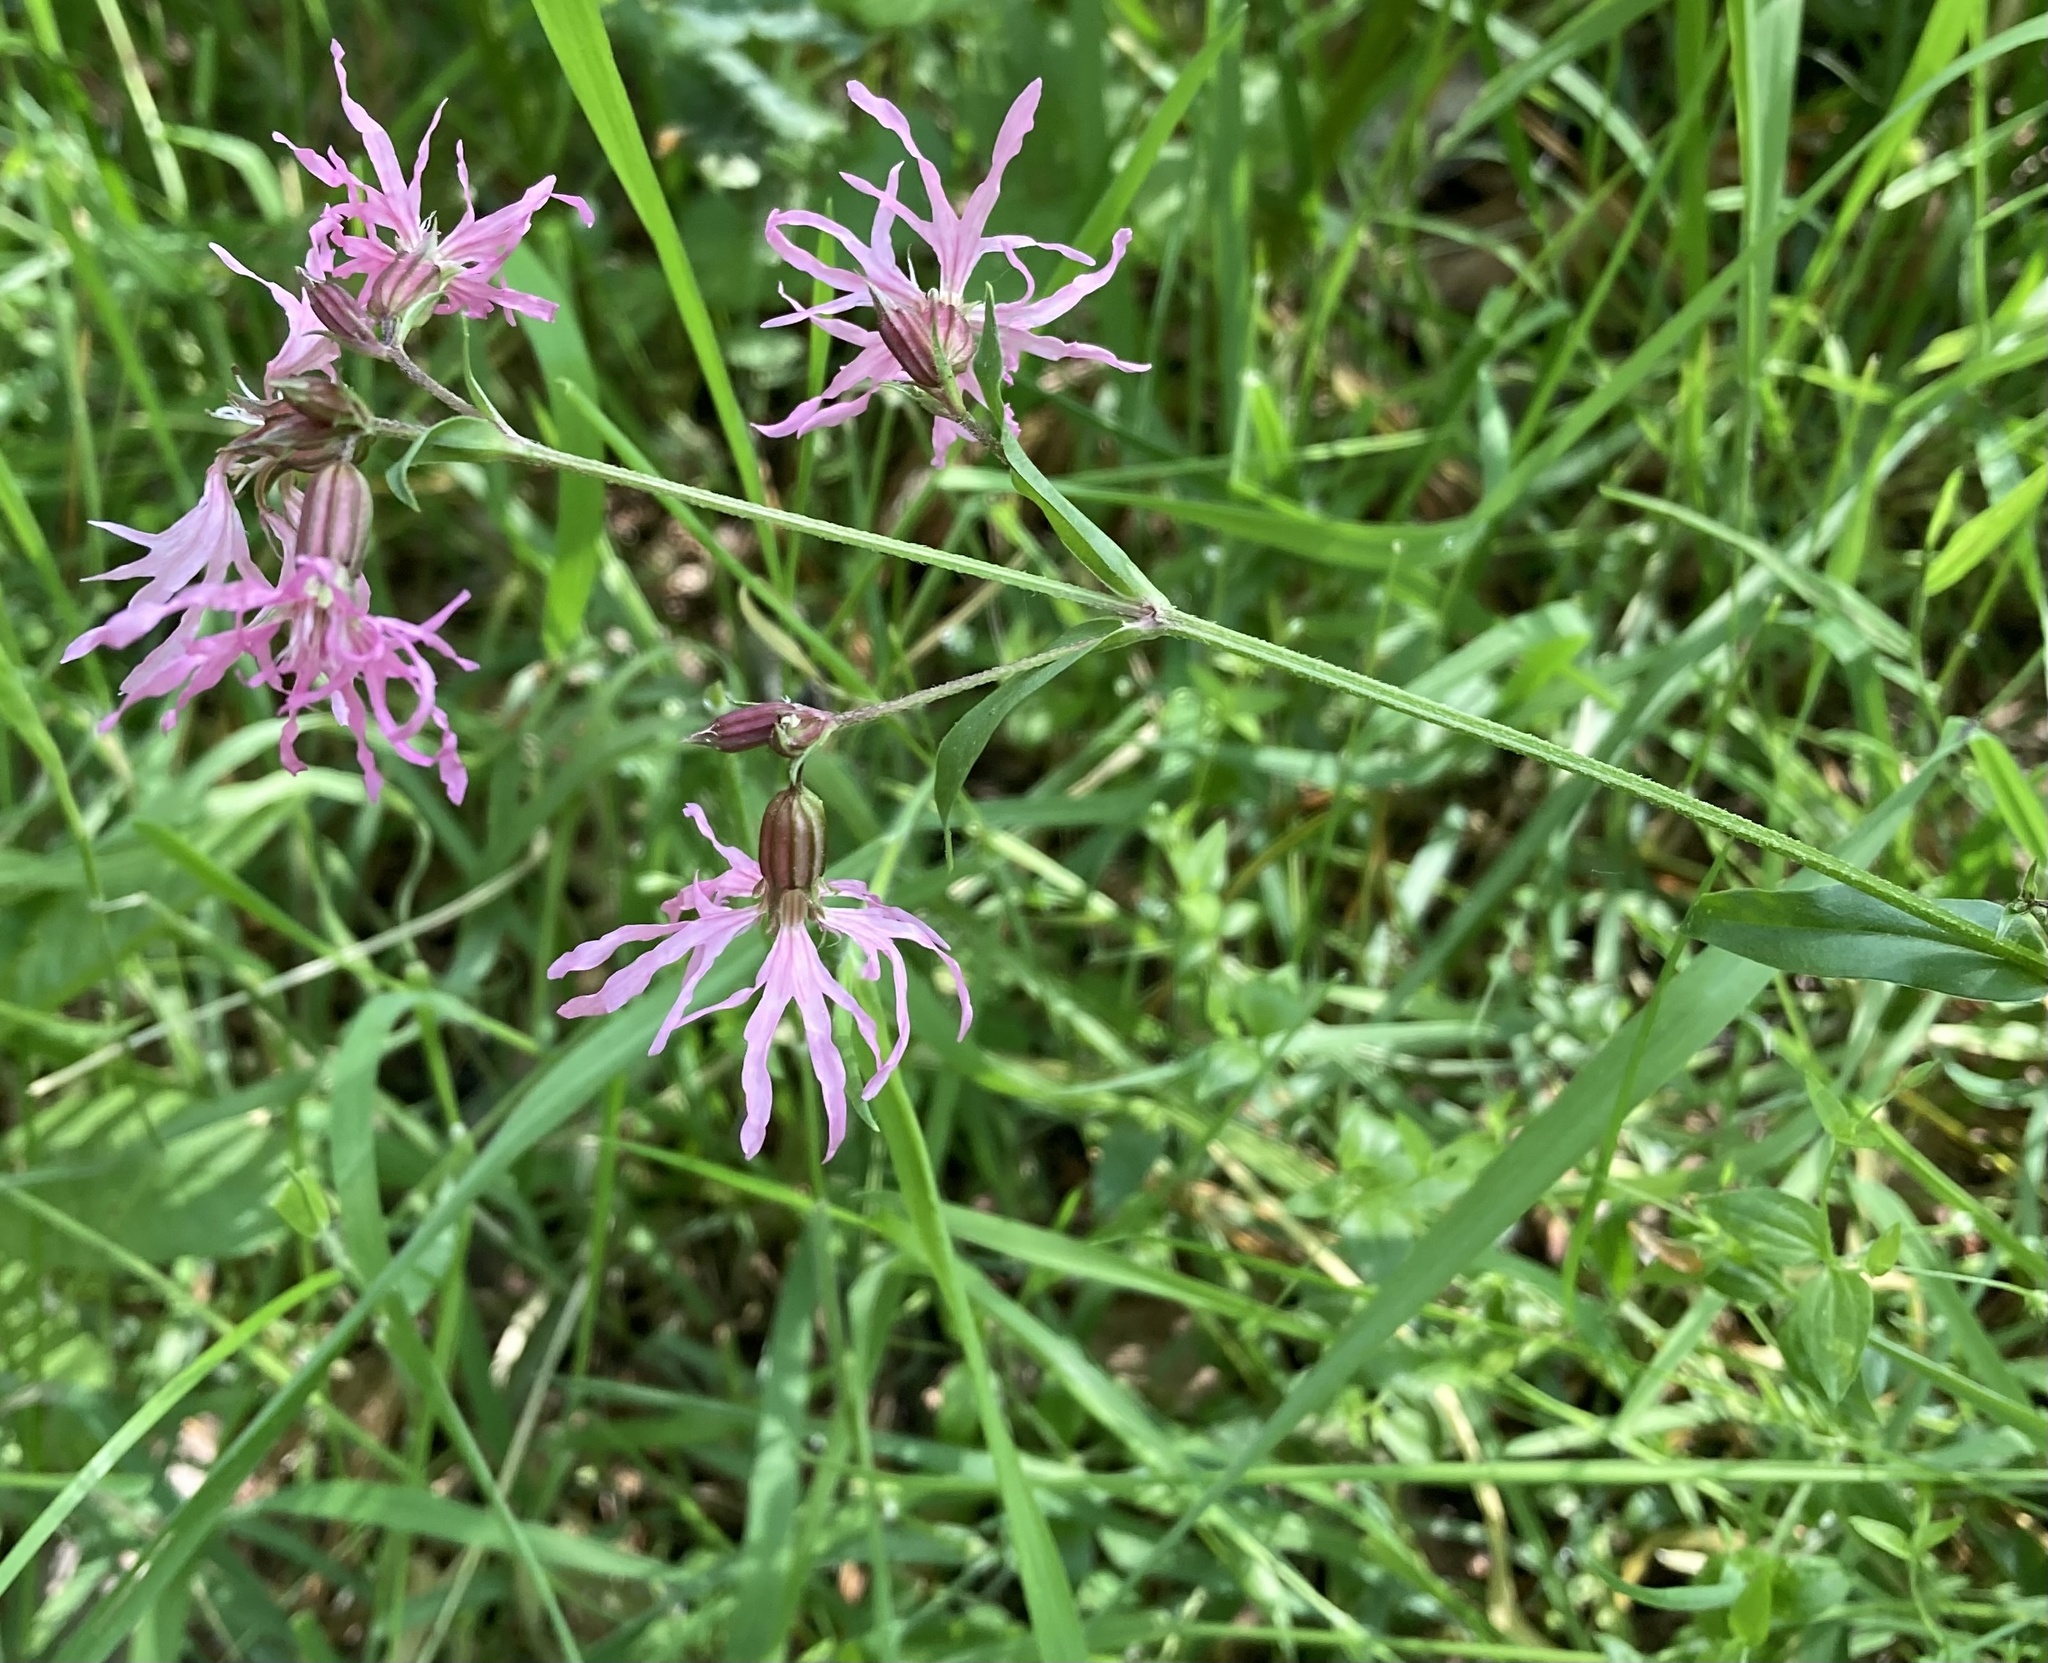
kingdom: Plantae
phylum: Tracheophyta
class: Magnoliopsida
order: Caryophyllales
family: Caryophyllaceae
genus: Silene
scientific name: Silene flos-cuculi
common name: Ragged-robin
